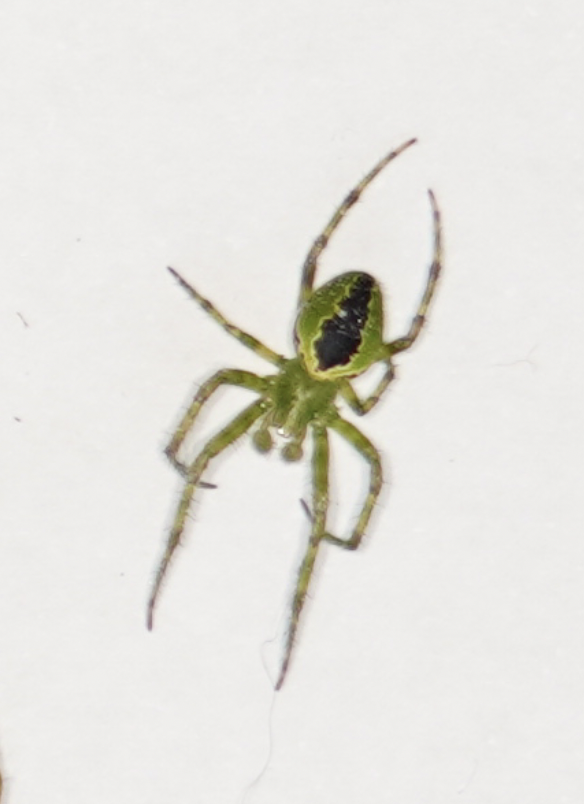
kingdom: Animalia
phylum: Arthropoda
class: Arachnida
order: Araneae
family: Araneidae
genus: Colaranea
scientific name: Colaranea melanoviridis
